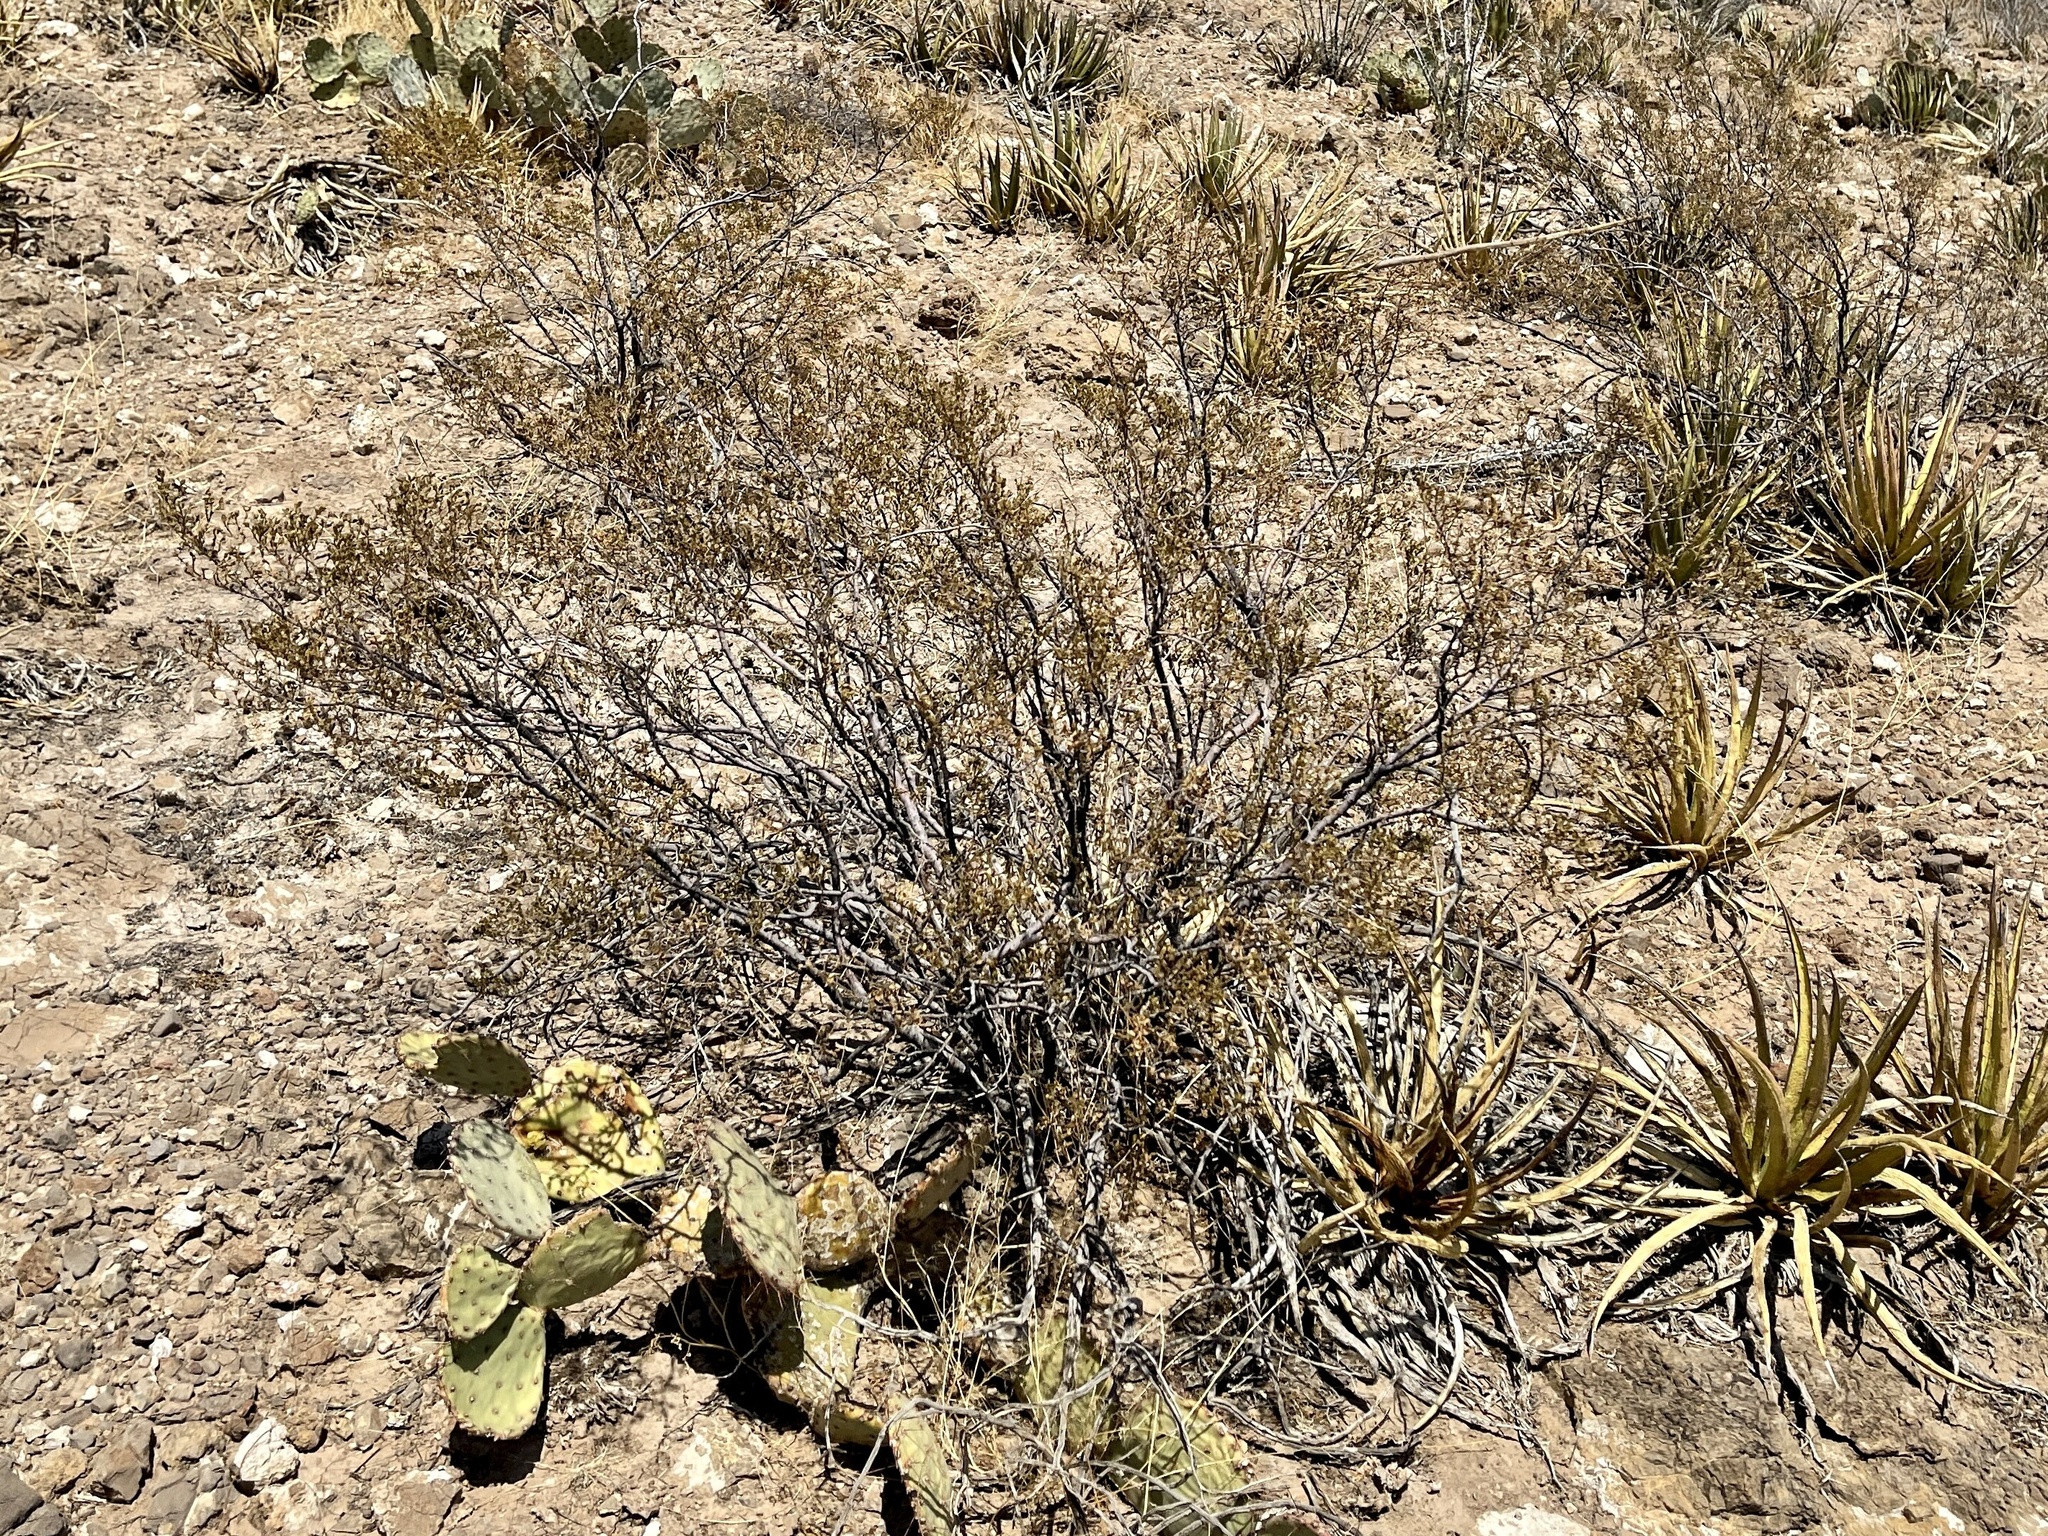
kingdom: Plantae
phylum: Tracheophyta
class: Magnoliopsida
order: Zygophyllales
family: Zygophyllaceae
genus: Larrea
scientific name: Larrea tridentata
